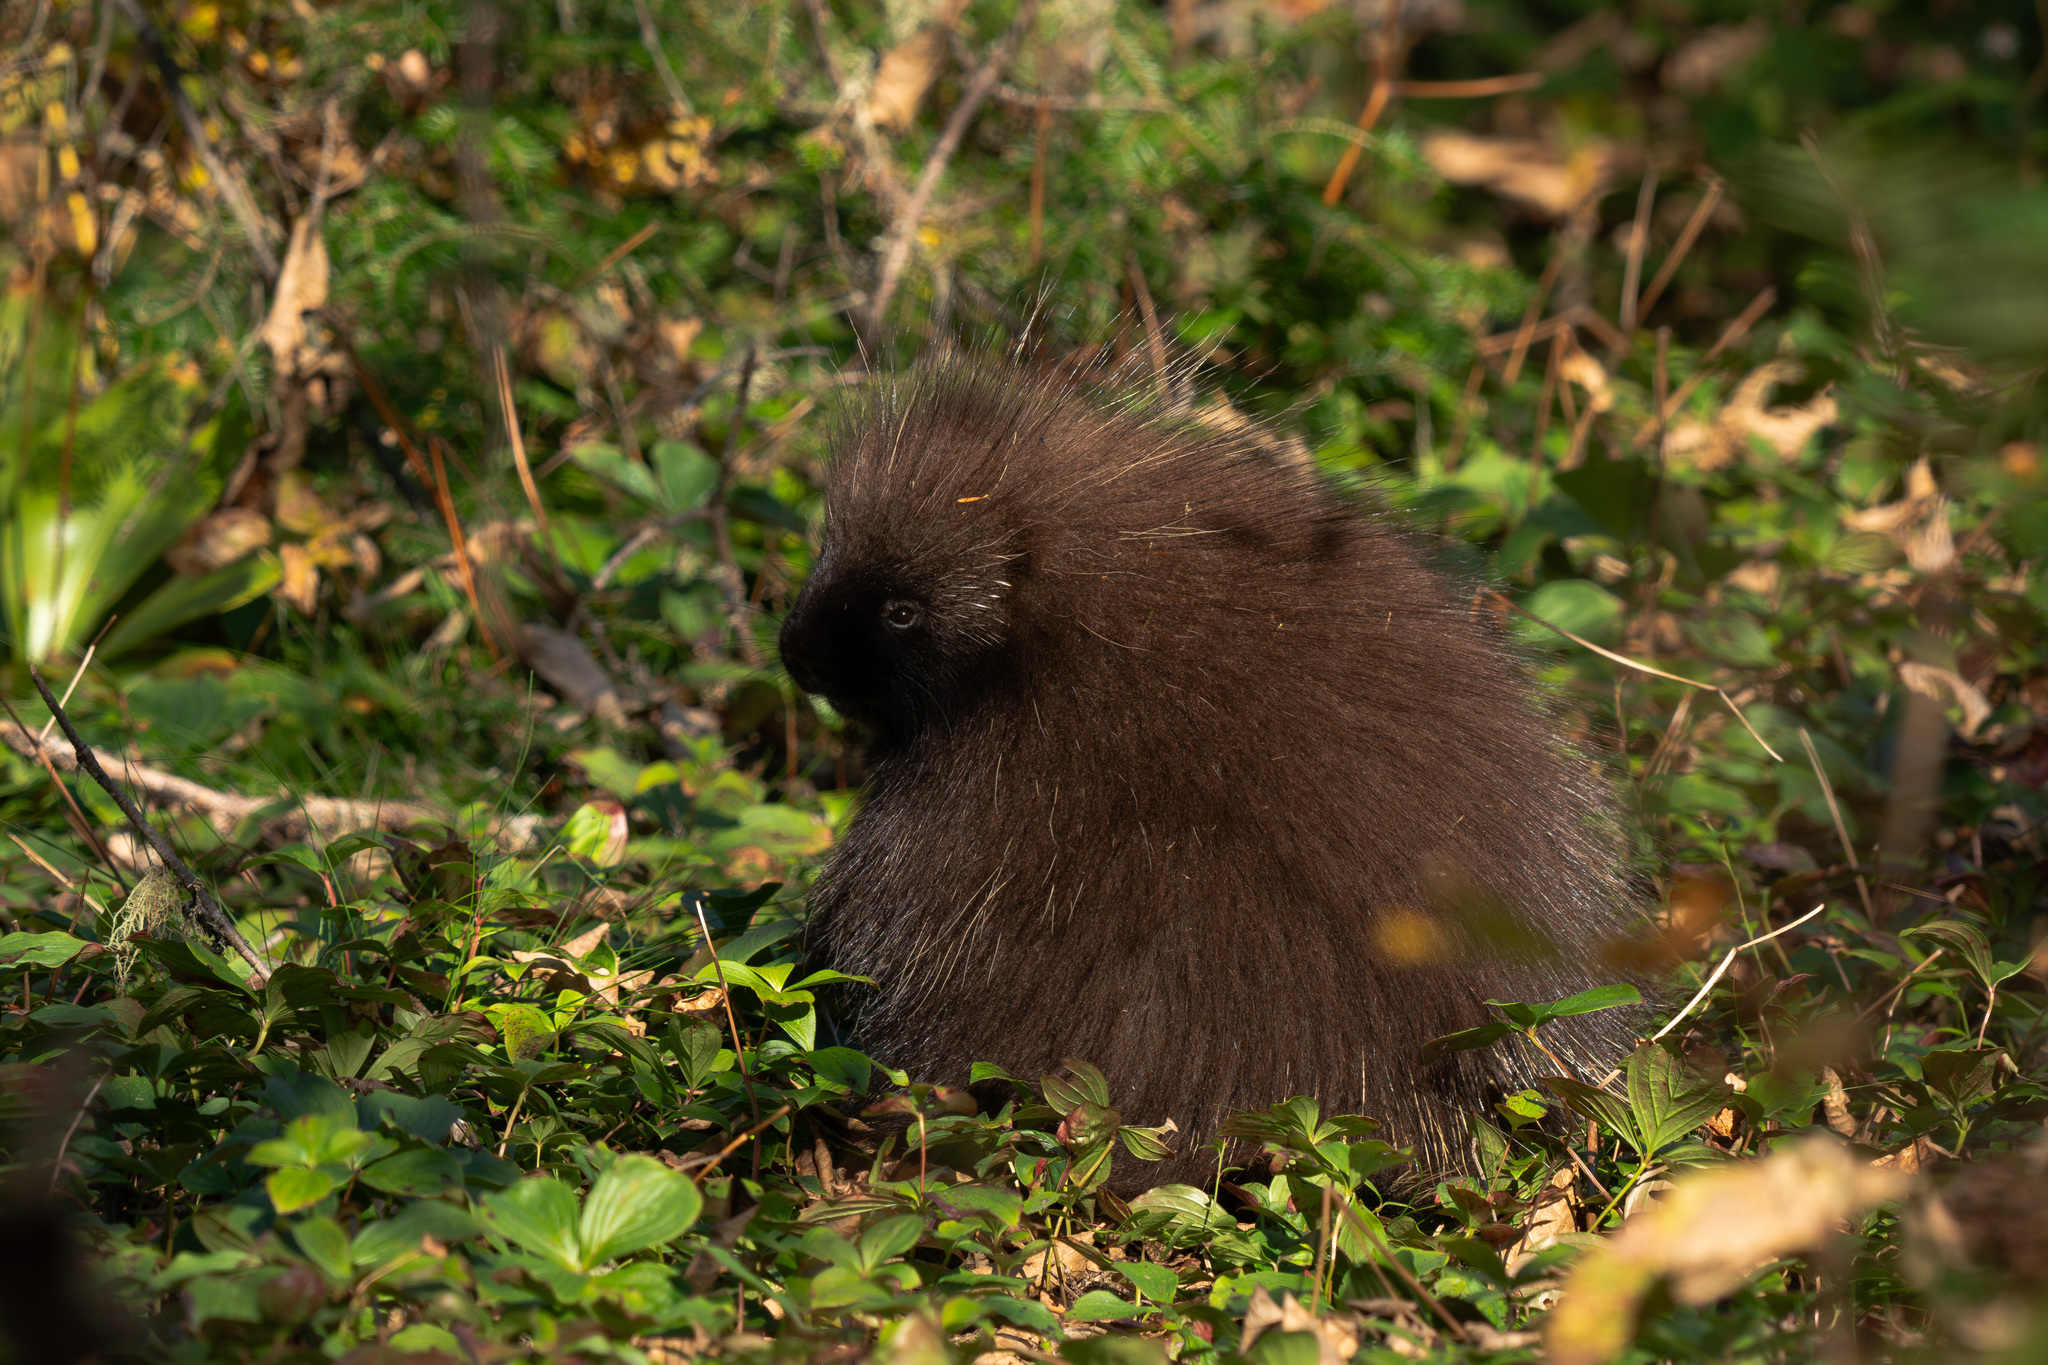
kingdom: Animalia
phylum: Chordata
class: Mammalia
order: Rodentia
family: Erethizontidae
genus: Erethizon
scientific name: Erethizon dorsatus
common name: North american porcupine
